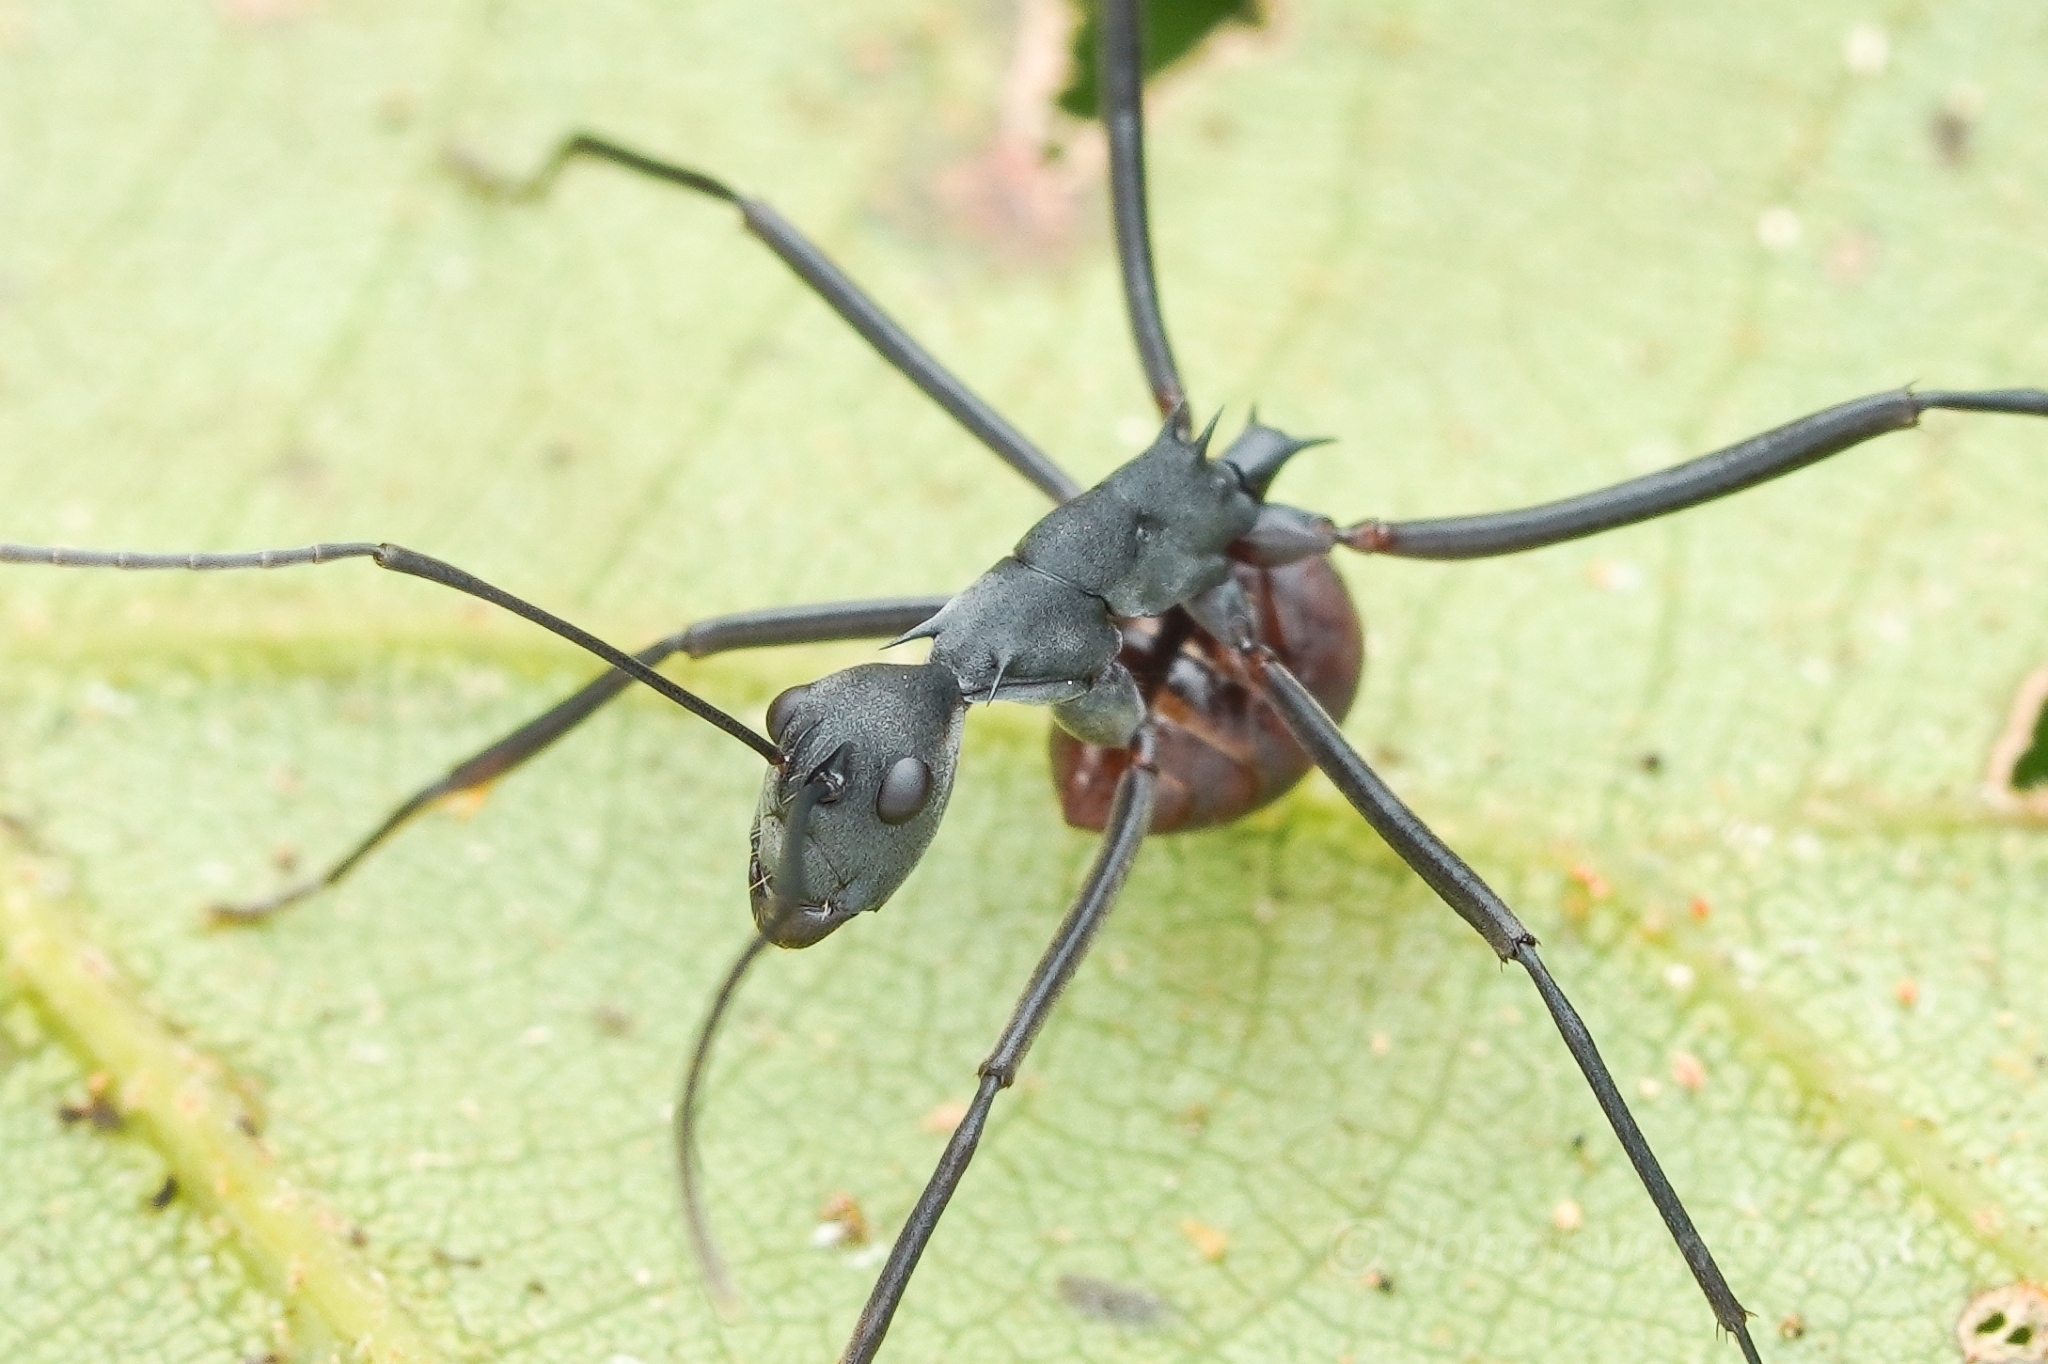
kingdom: Animalia
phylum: Arthropoda
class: Insecta
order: Hymenoptera
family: Formicidae
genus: Polyrhachis
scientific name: Polyrhachis muelleri
